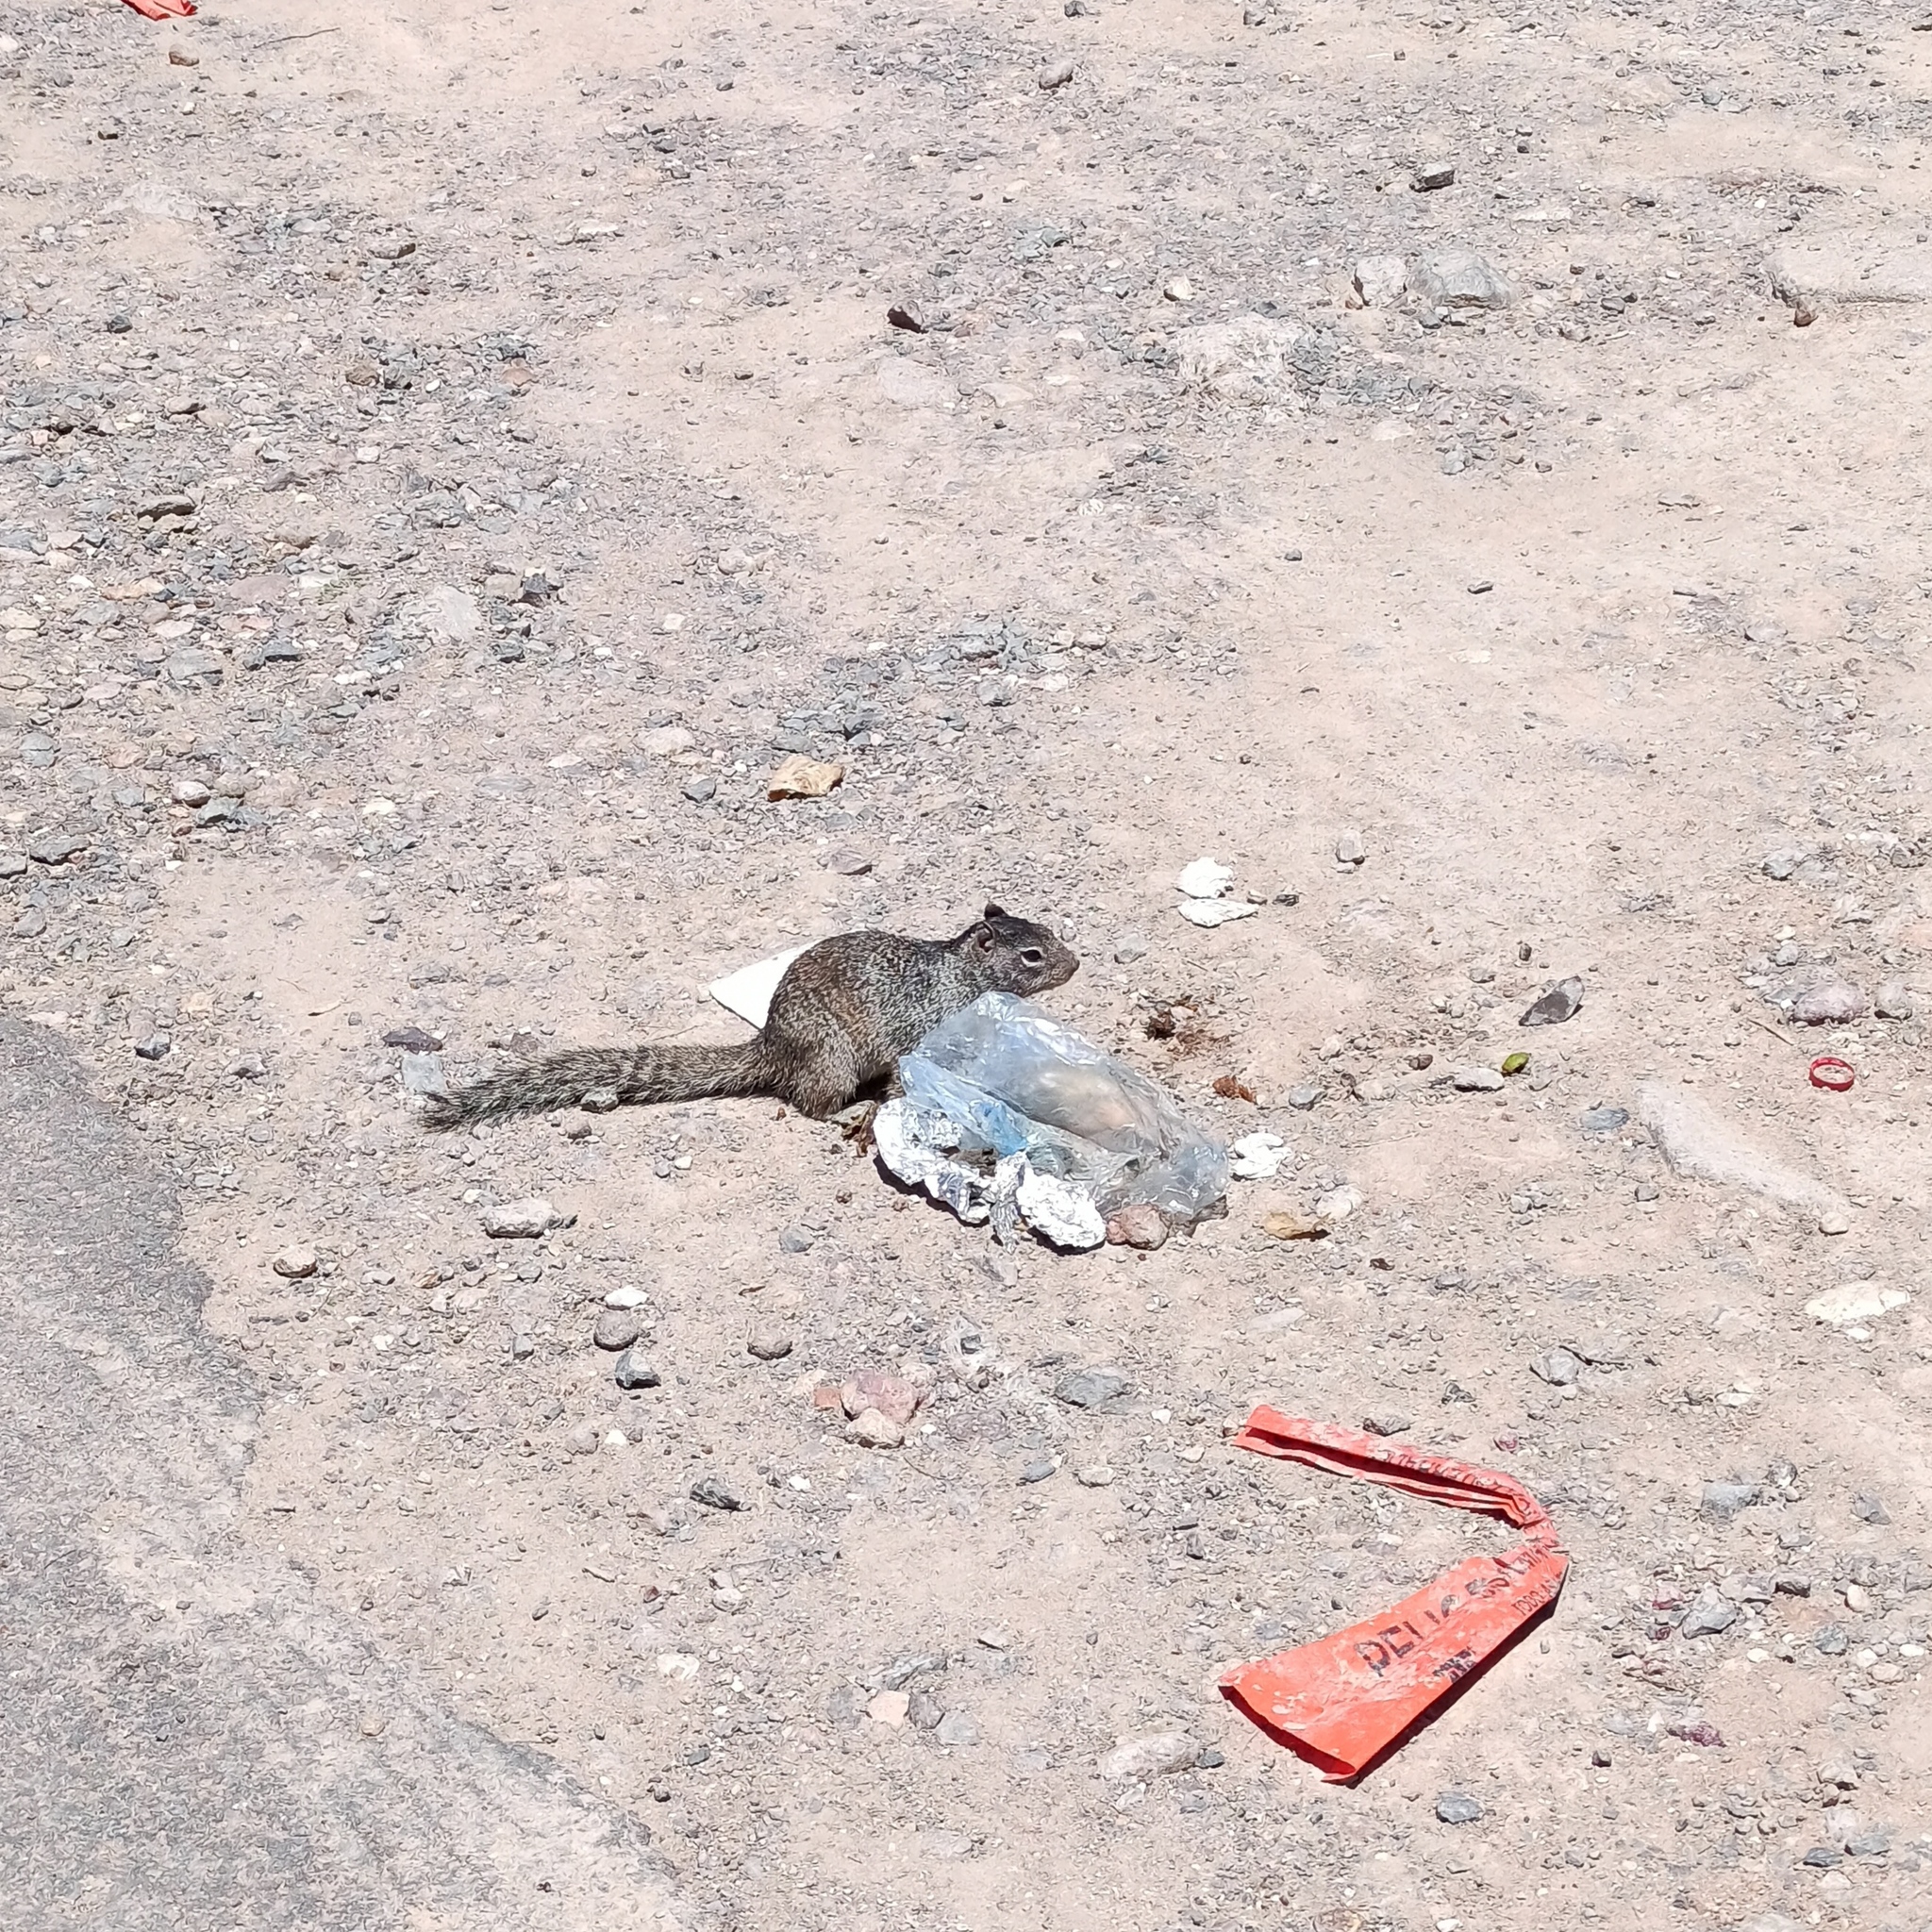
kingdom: Animalia
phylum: Chordata
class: Mammalia
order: Rodentia
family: Sciuridae
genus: Otospermophilus
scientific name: Otospermophilus variegatus
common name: Rock squirrel
